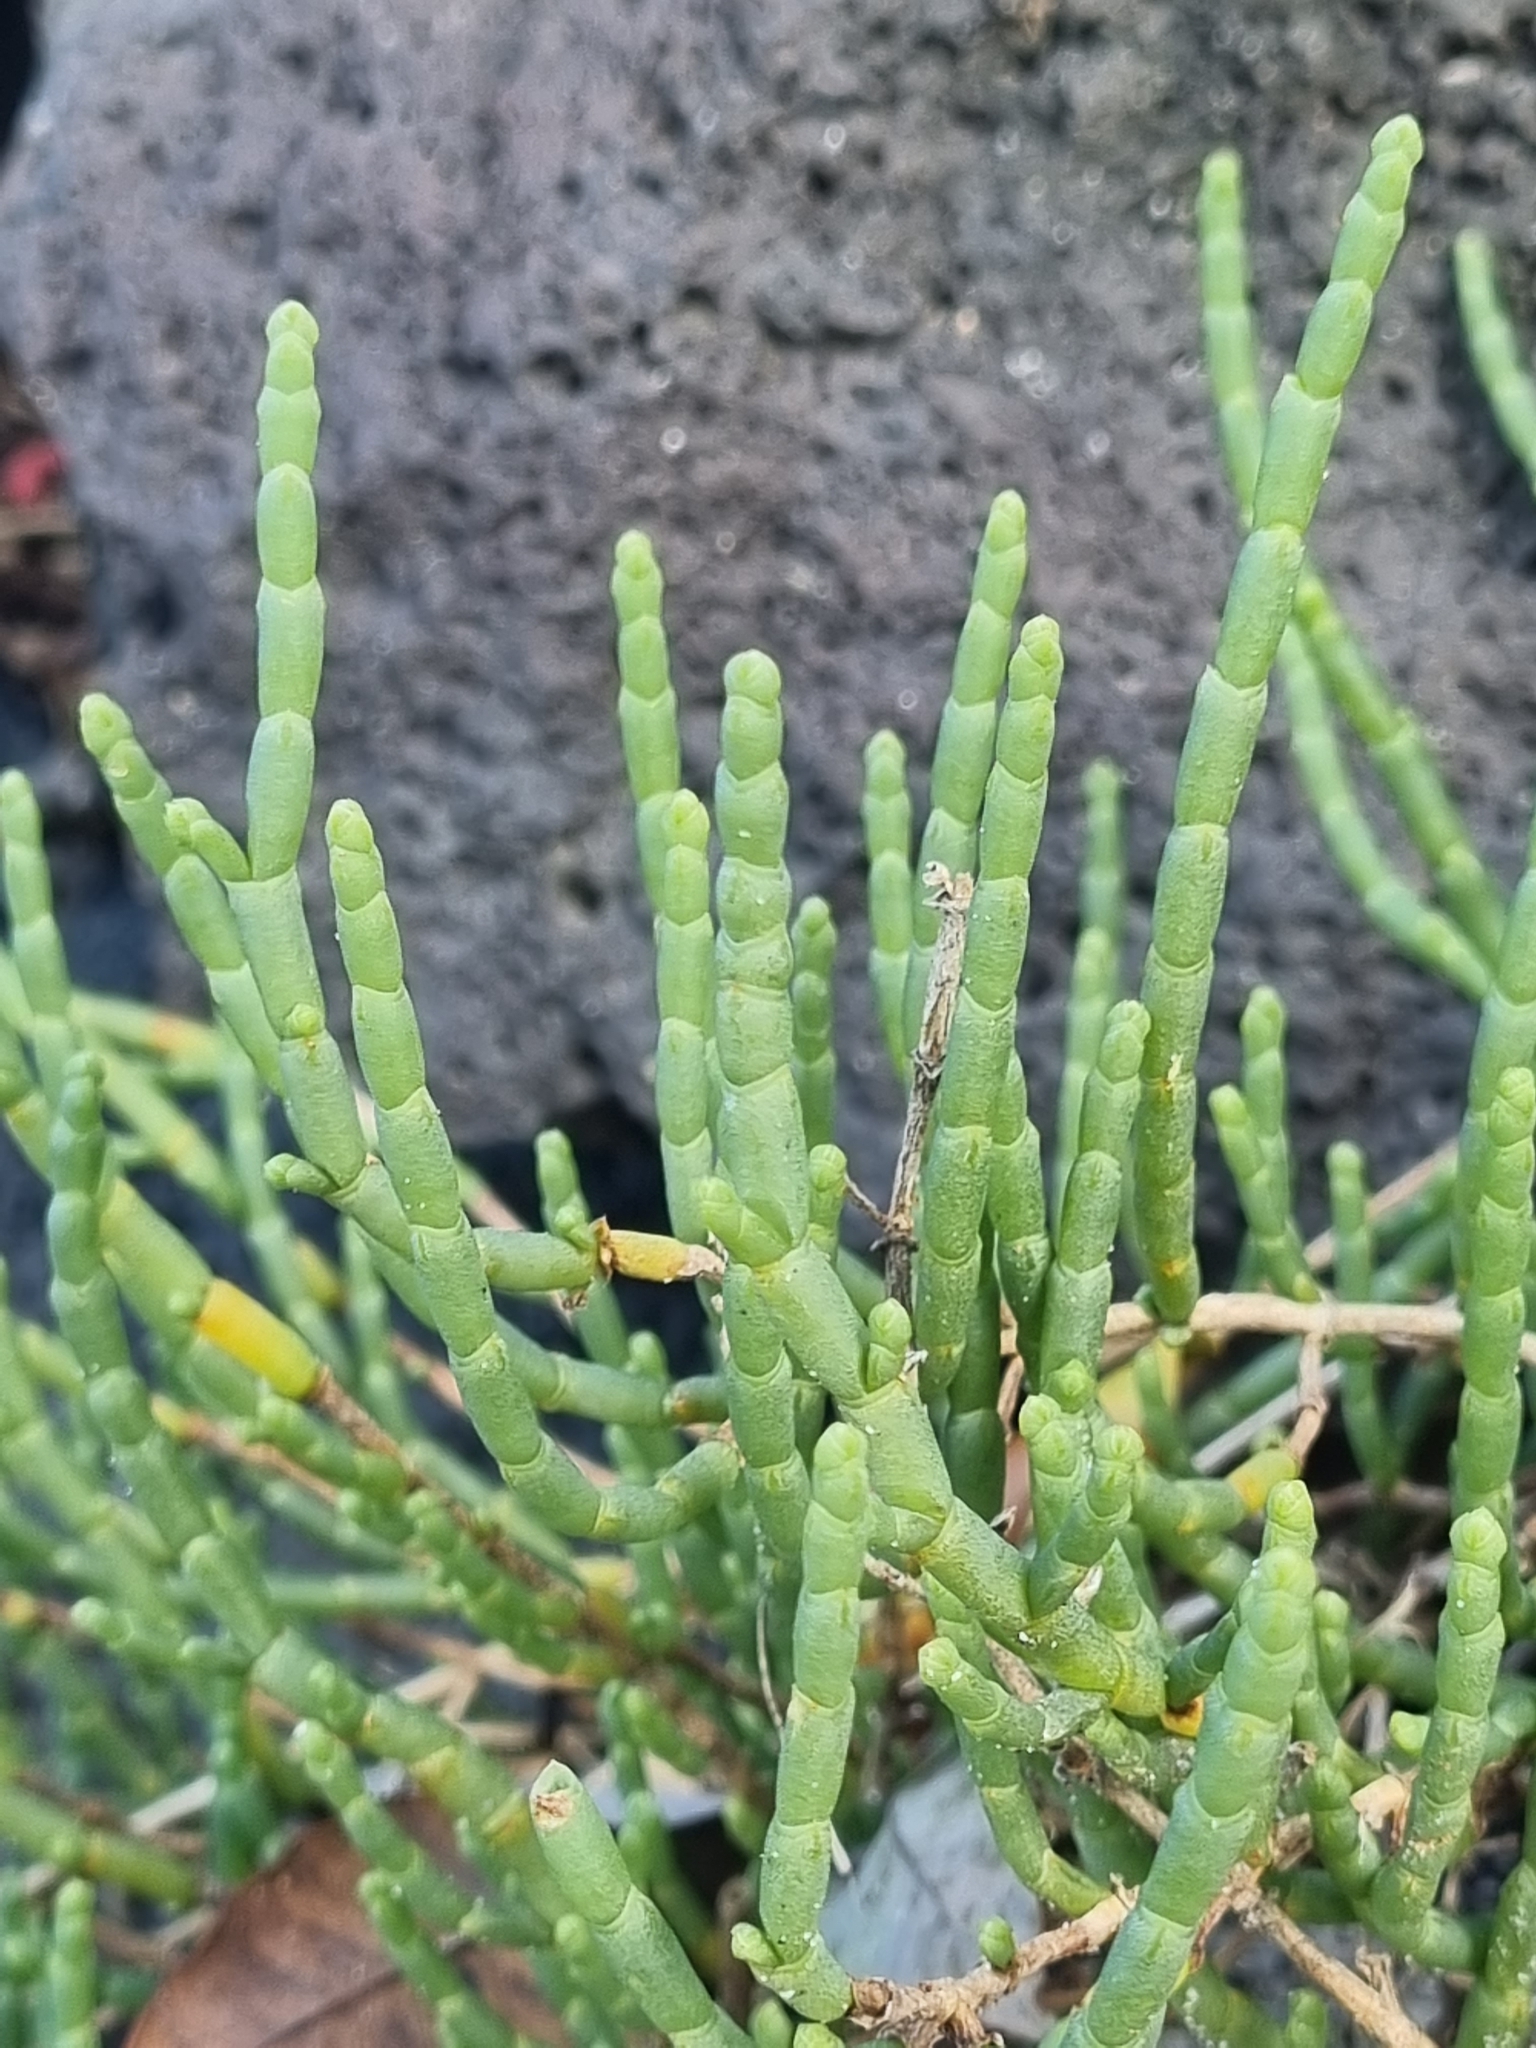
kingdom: Plantae
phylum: Tracheophyta
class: Magnoliopsida
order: Caryophyllales
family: Amaranthaceae
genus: Salicornia
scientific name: Salicornia quinqueflora
